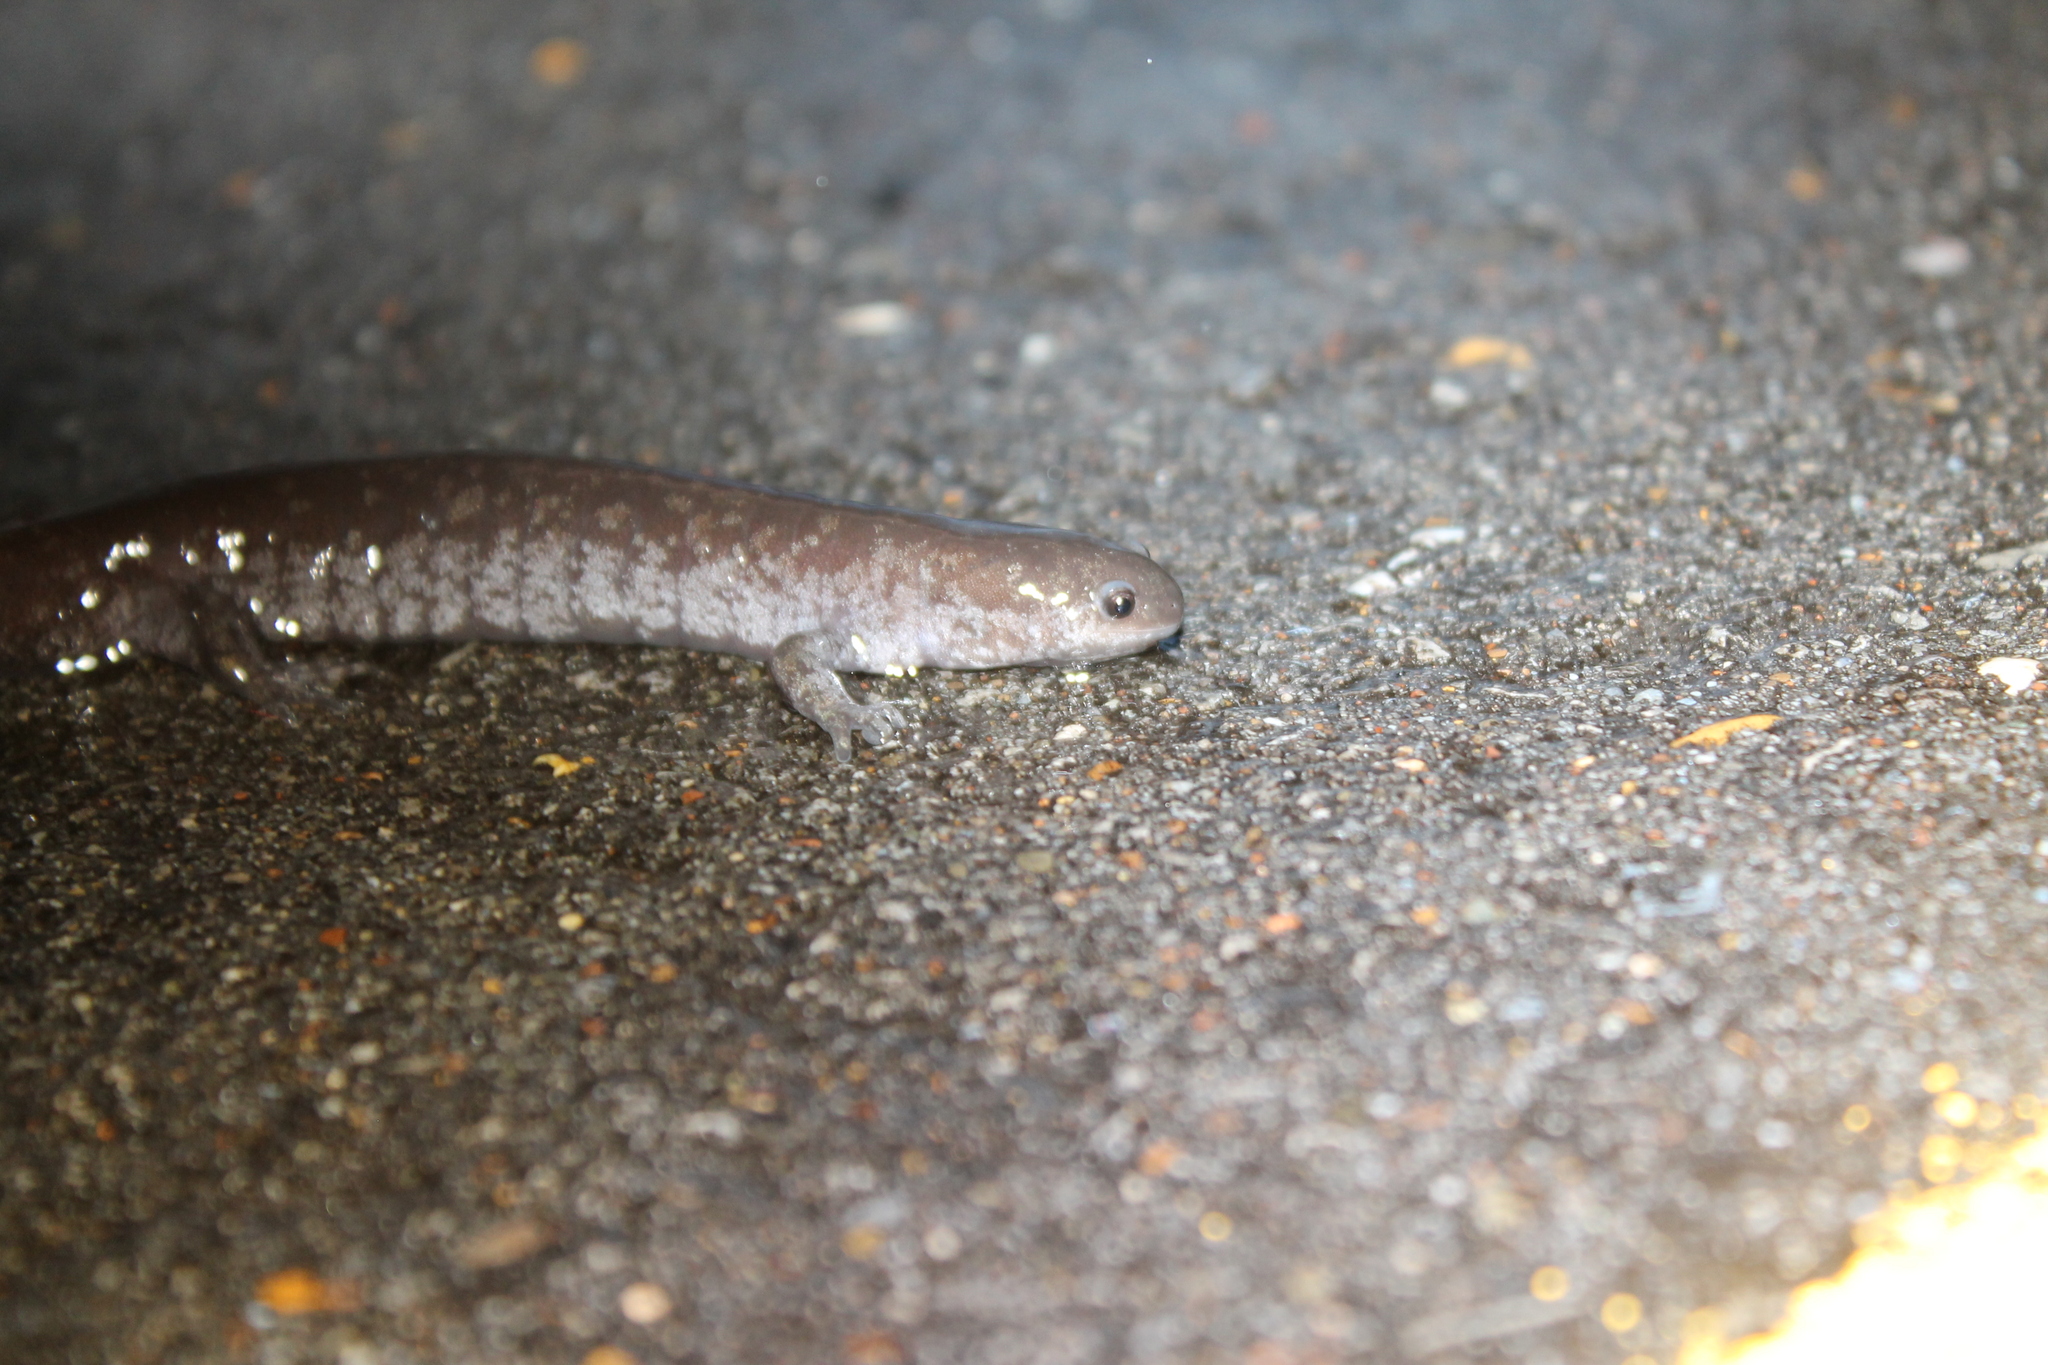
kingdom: Animalia
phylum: Chordata
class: Amphibia
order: Caudata
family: Ambystomatidae
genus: Ambystoma
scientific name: Ambystoma texanum
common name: Small-mouth salamander
